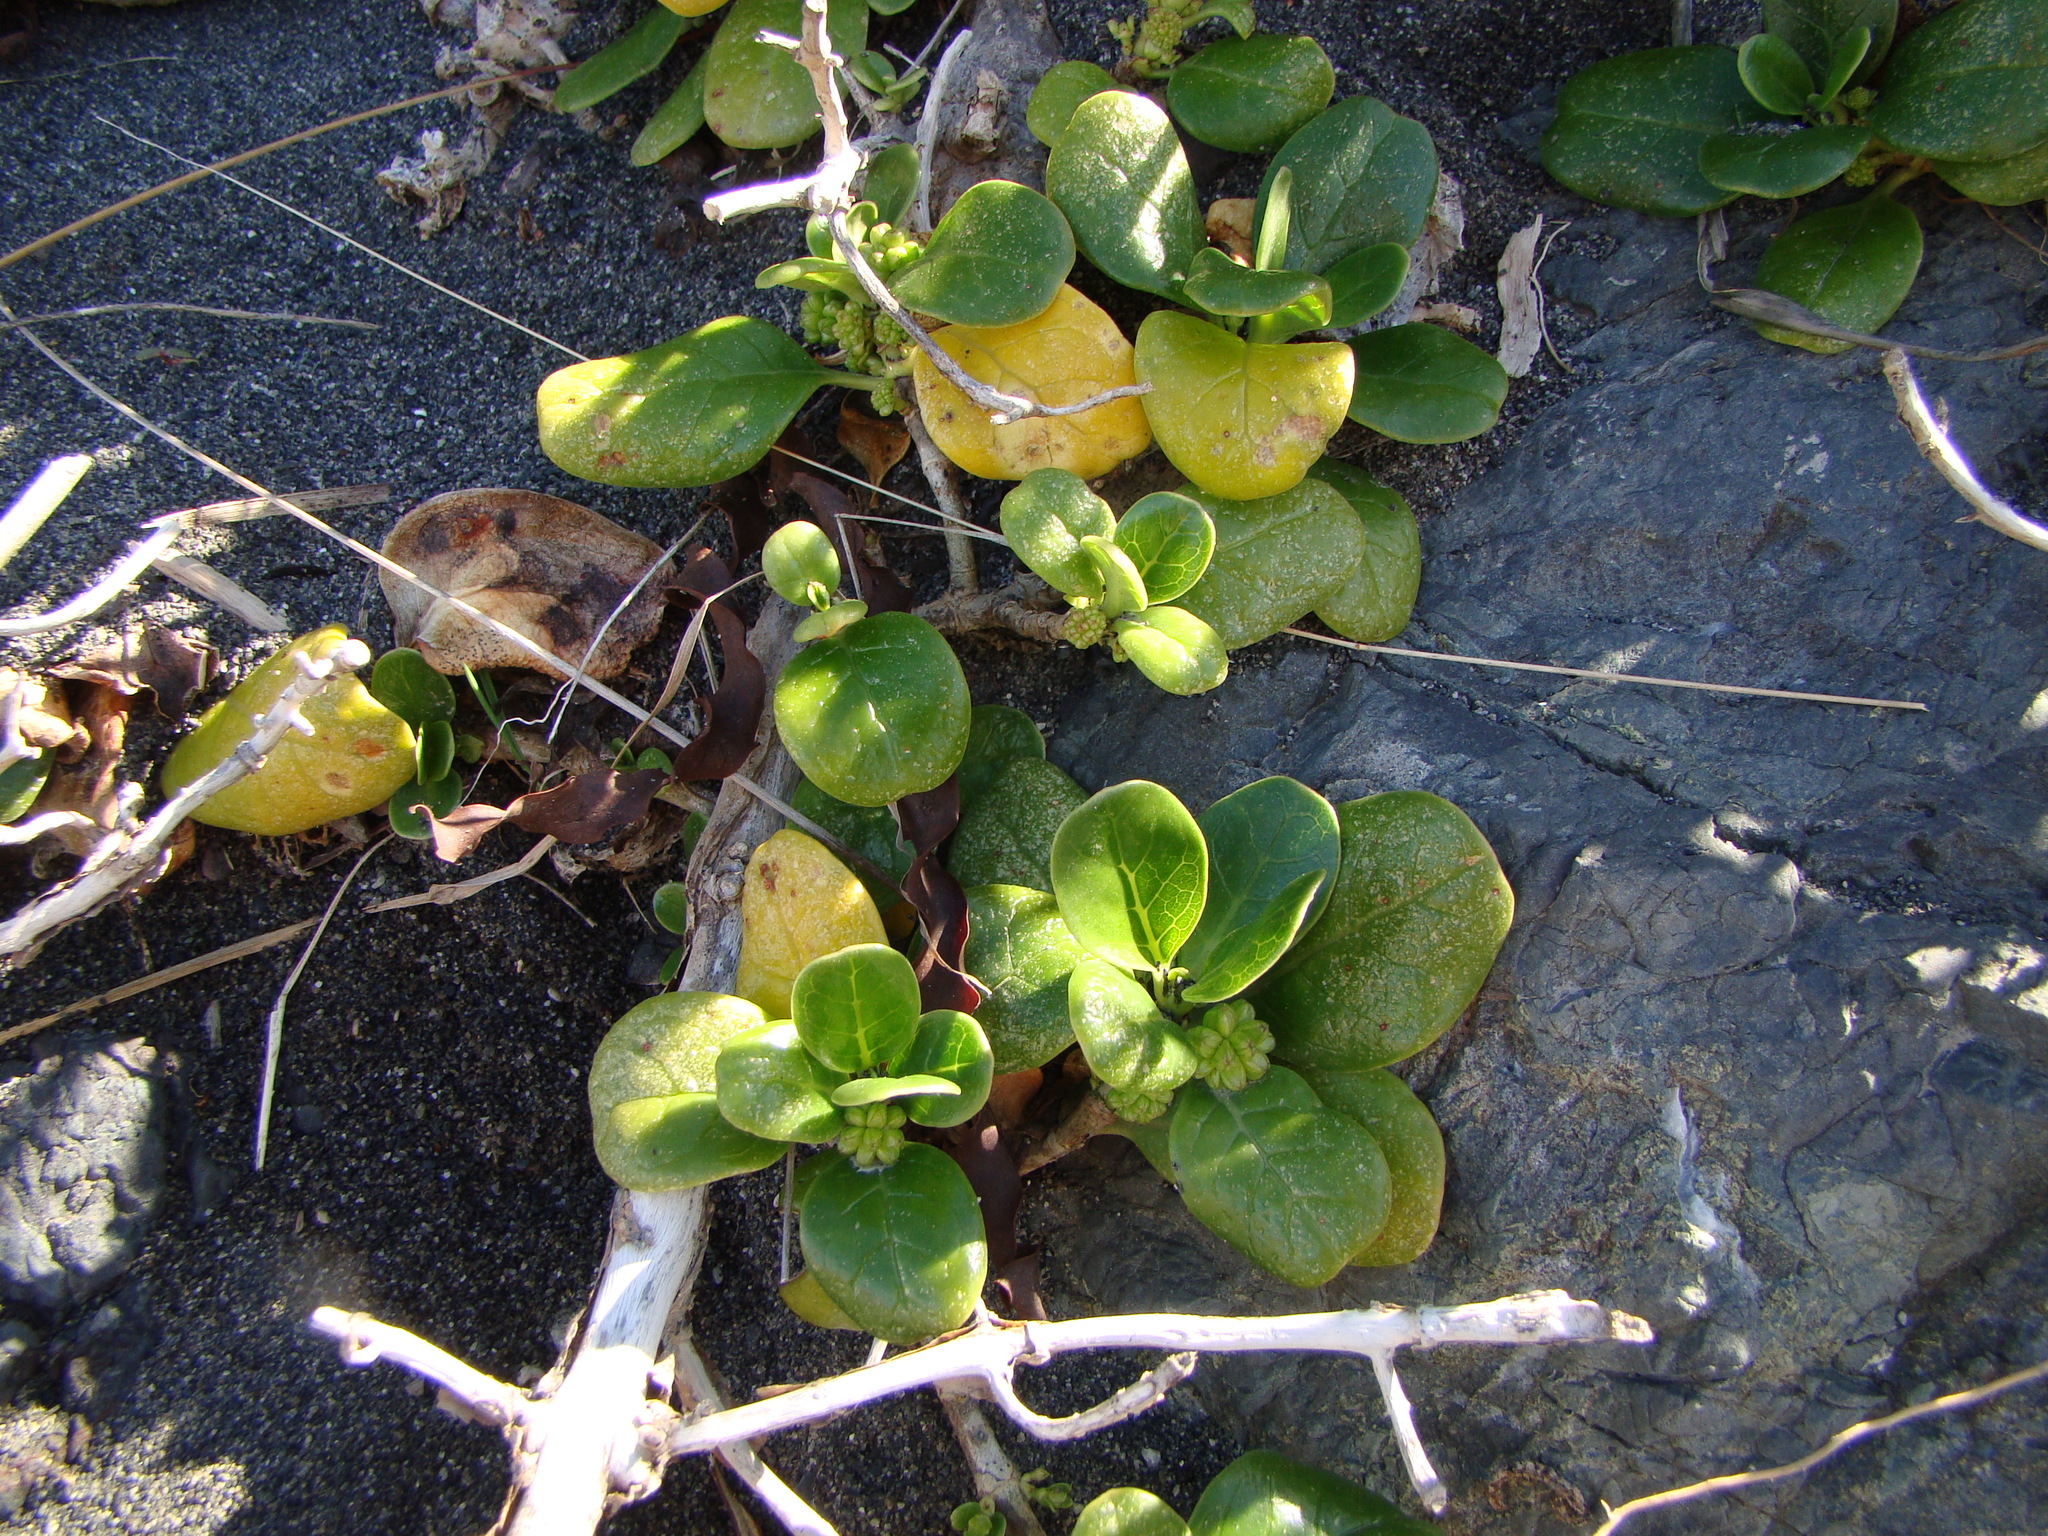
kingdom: Plantae
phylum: Tracheophyta
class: Magnoliopsida
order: Gentianales
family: Rubiaceae
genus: Coprosma
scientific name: Coprosma repens
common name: Tree bedstraw
